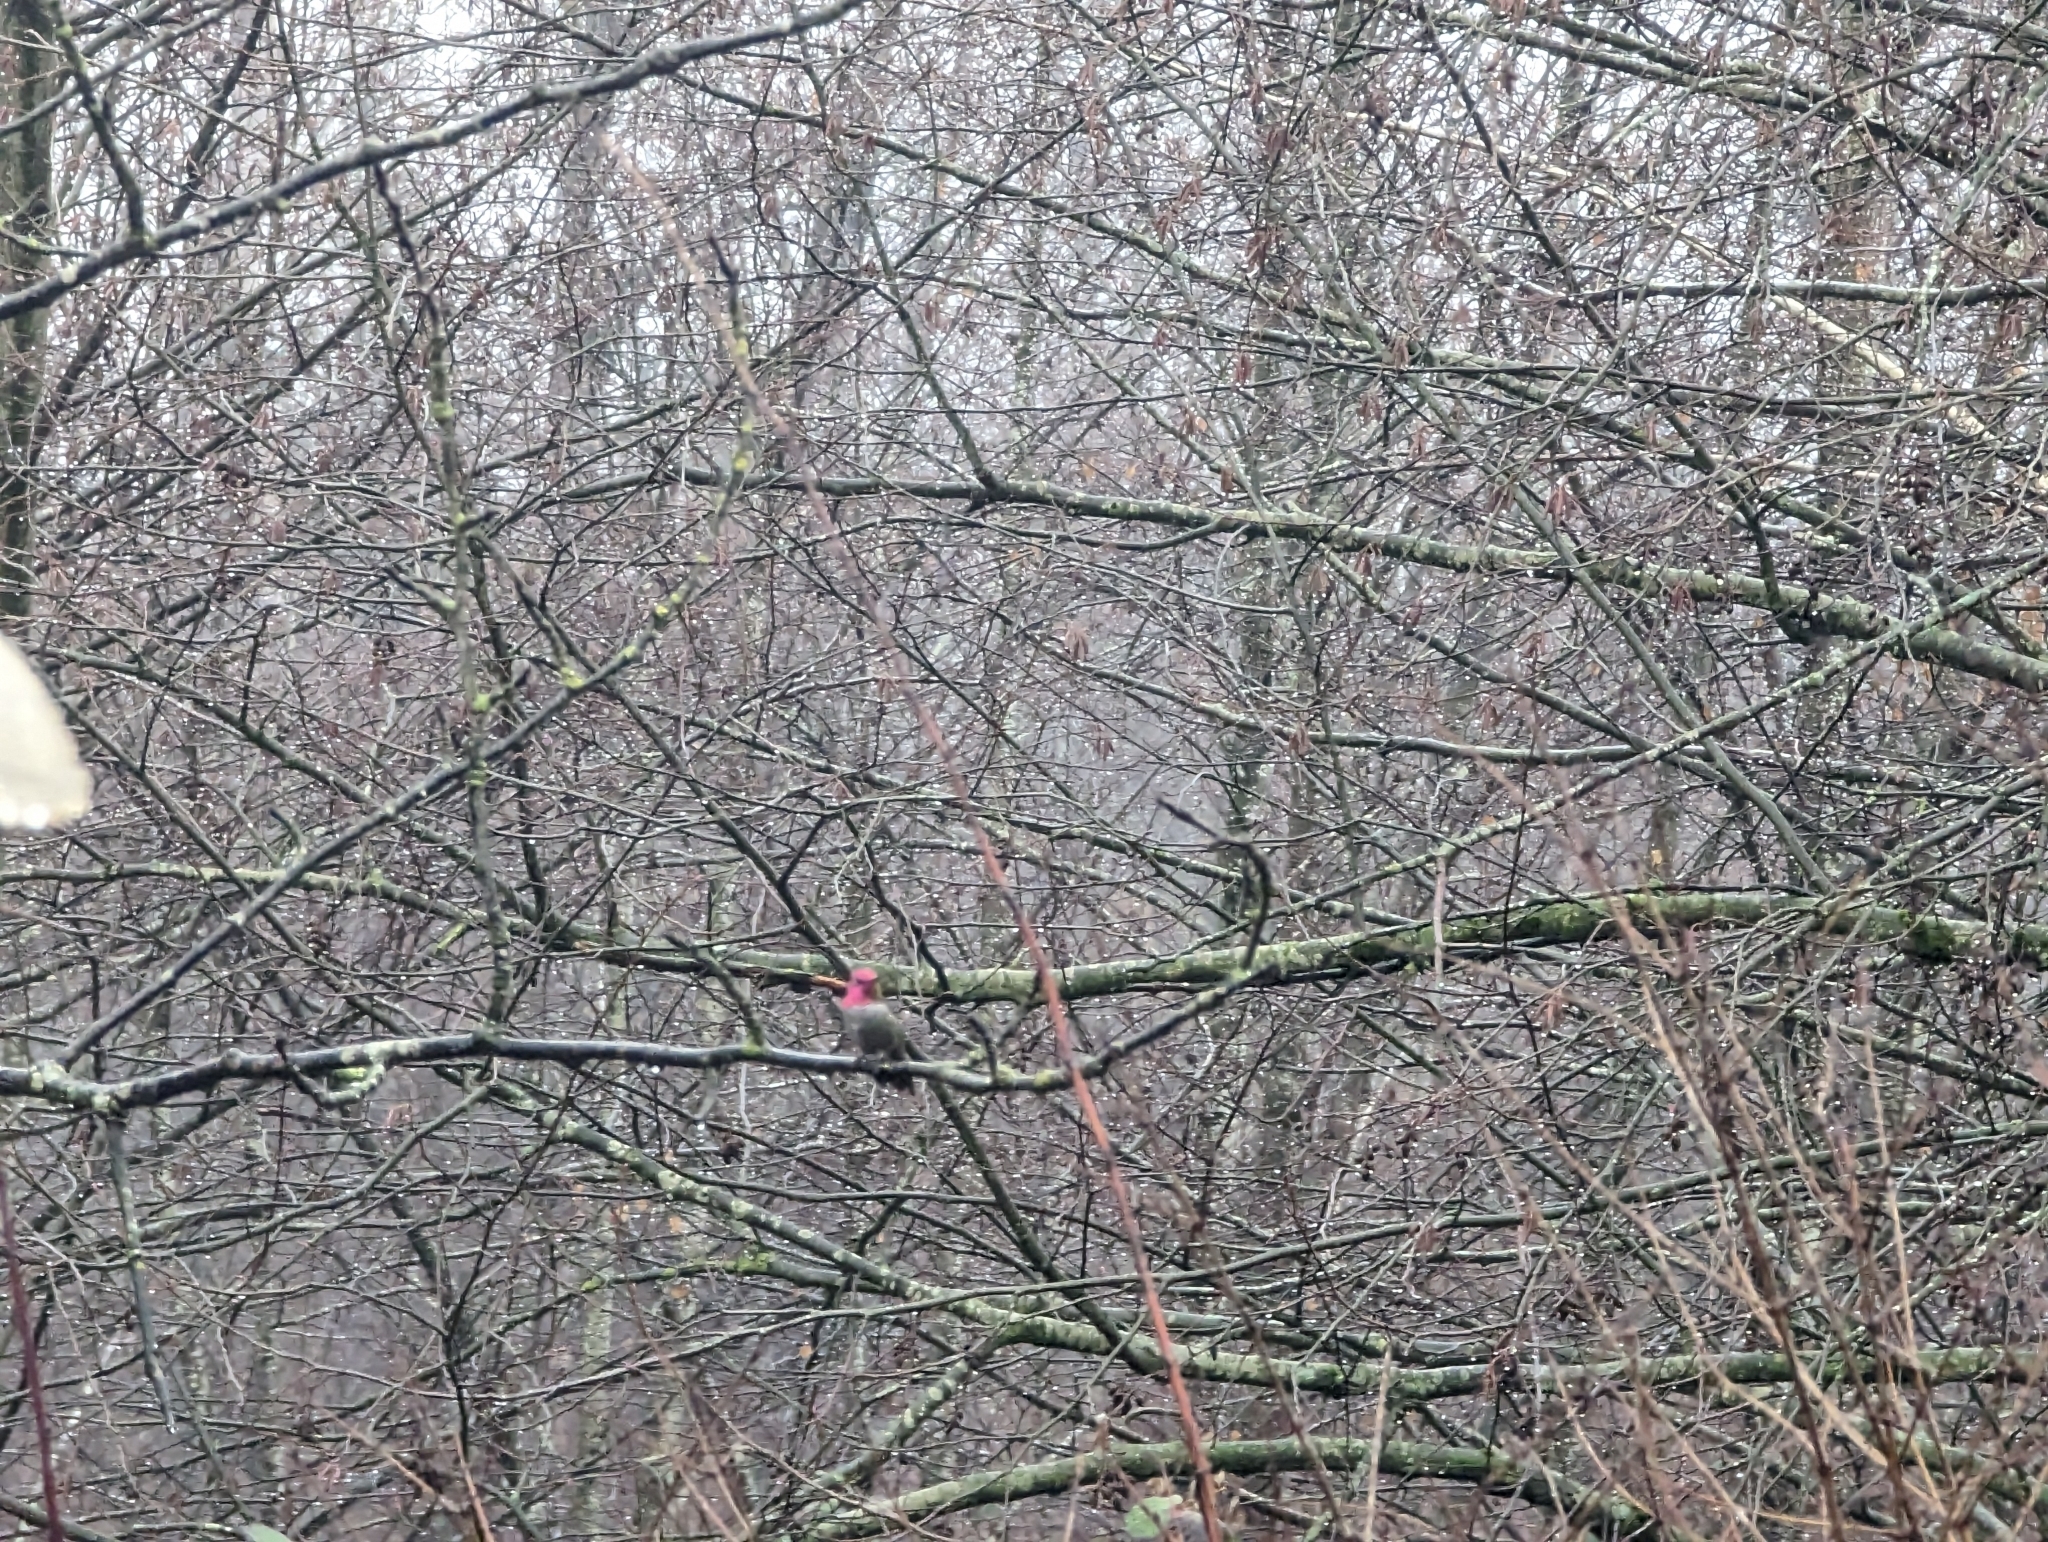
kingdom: Animalia
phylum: Chordata
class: Aves
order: Apodiformes
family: Trochilidae
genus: Calypte
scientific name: Calypte anna
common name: Anna's hummingbird
